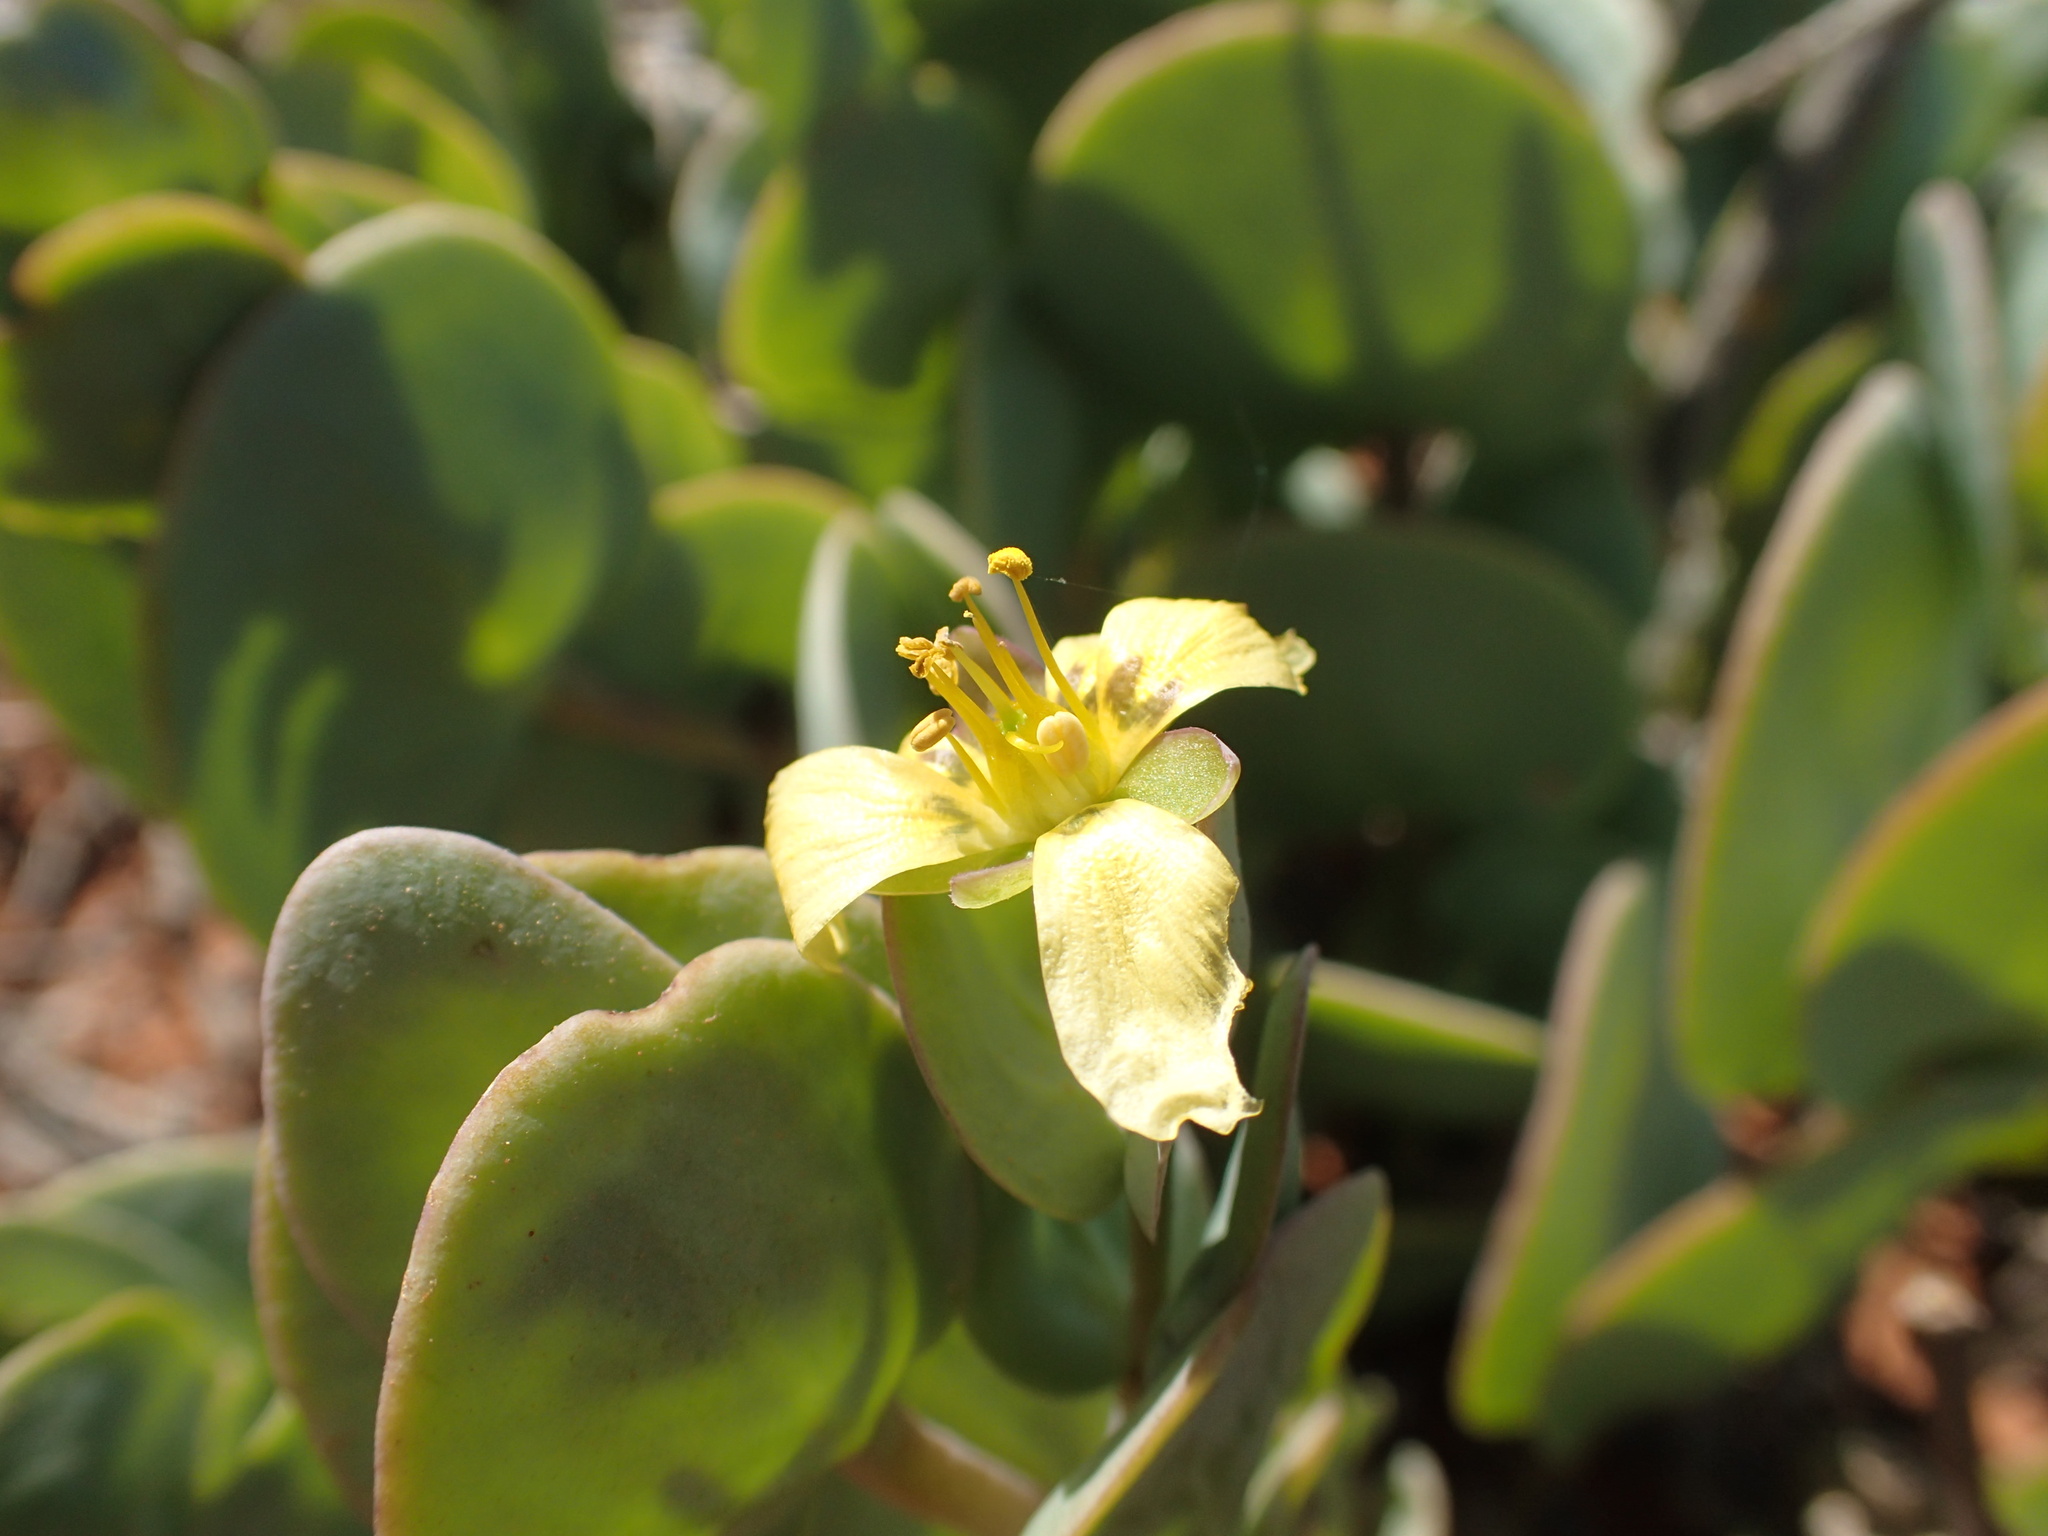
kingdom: Plantae
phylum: Tracheophyta
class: Magnoliopsida
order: Zygophyllales
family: Zygophyllaceae
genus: Roepera
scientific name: Roepera cordifolia
